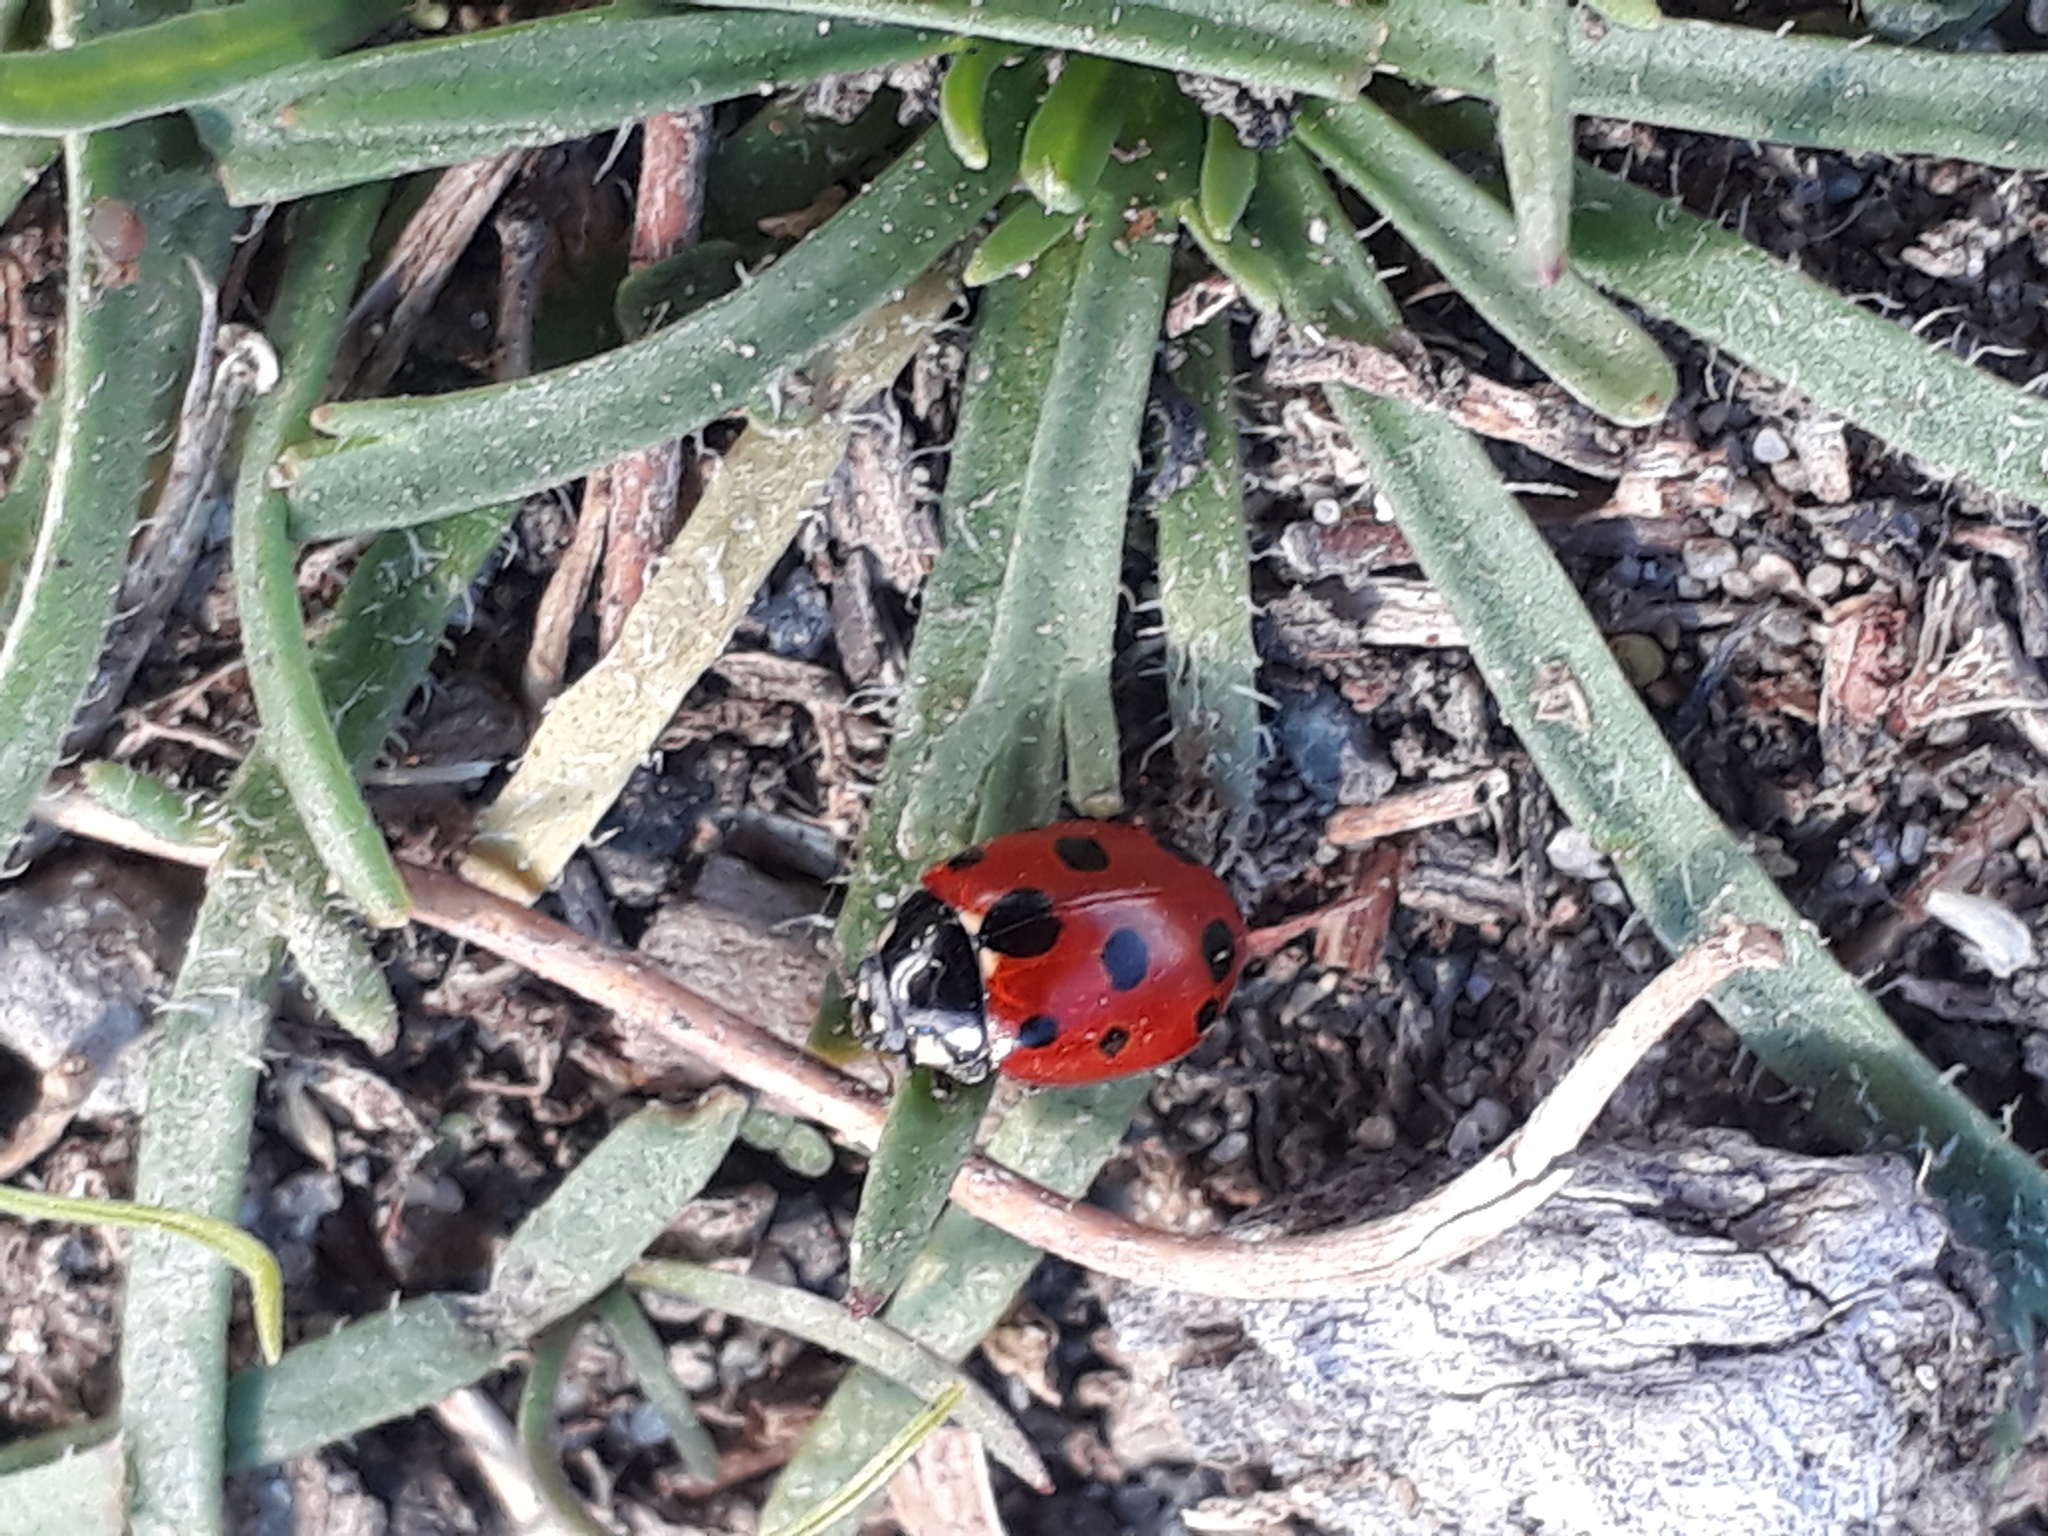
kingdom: Animalia
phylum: Arthropoda
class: Insecta
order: Coleoptera
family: Coccinellidae
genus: Coccinella
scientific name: Coccinella undecimpunctata
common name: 11-spot ladybird
